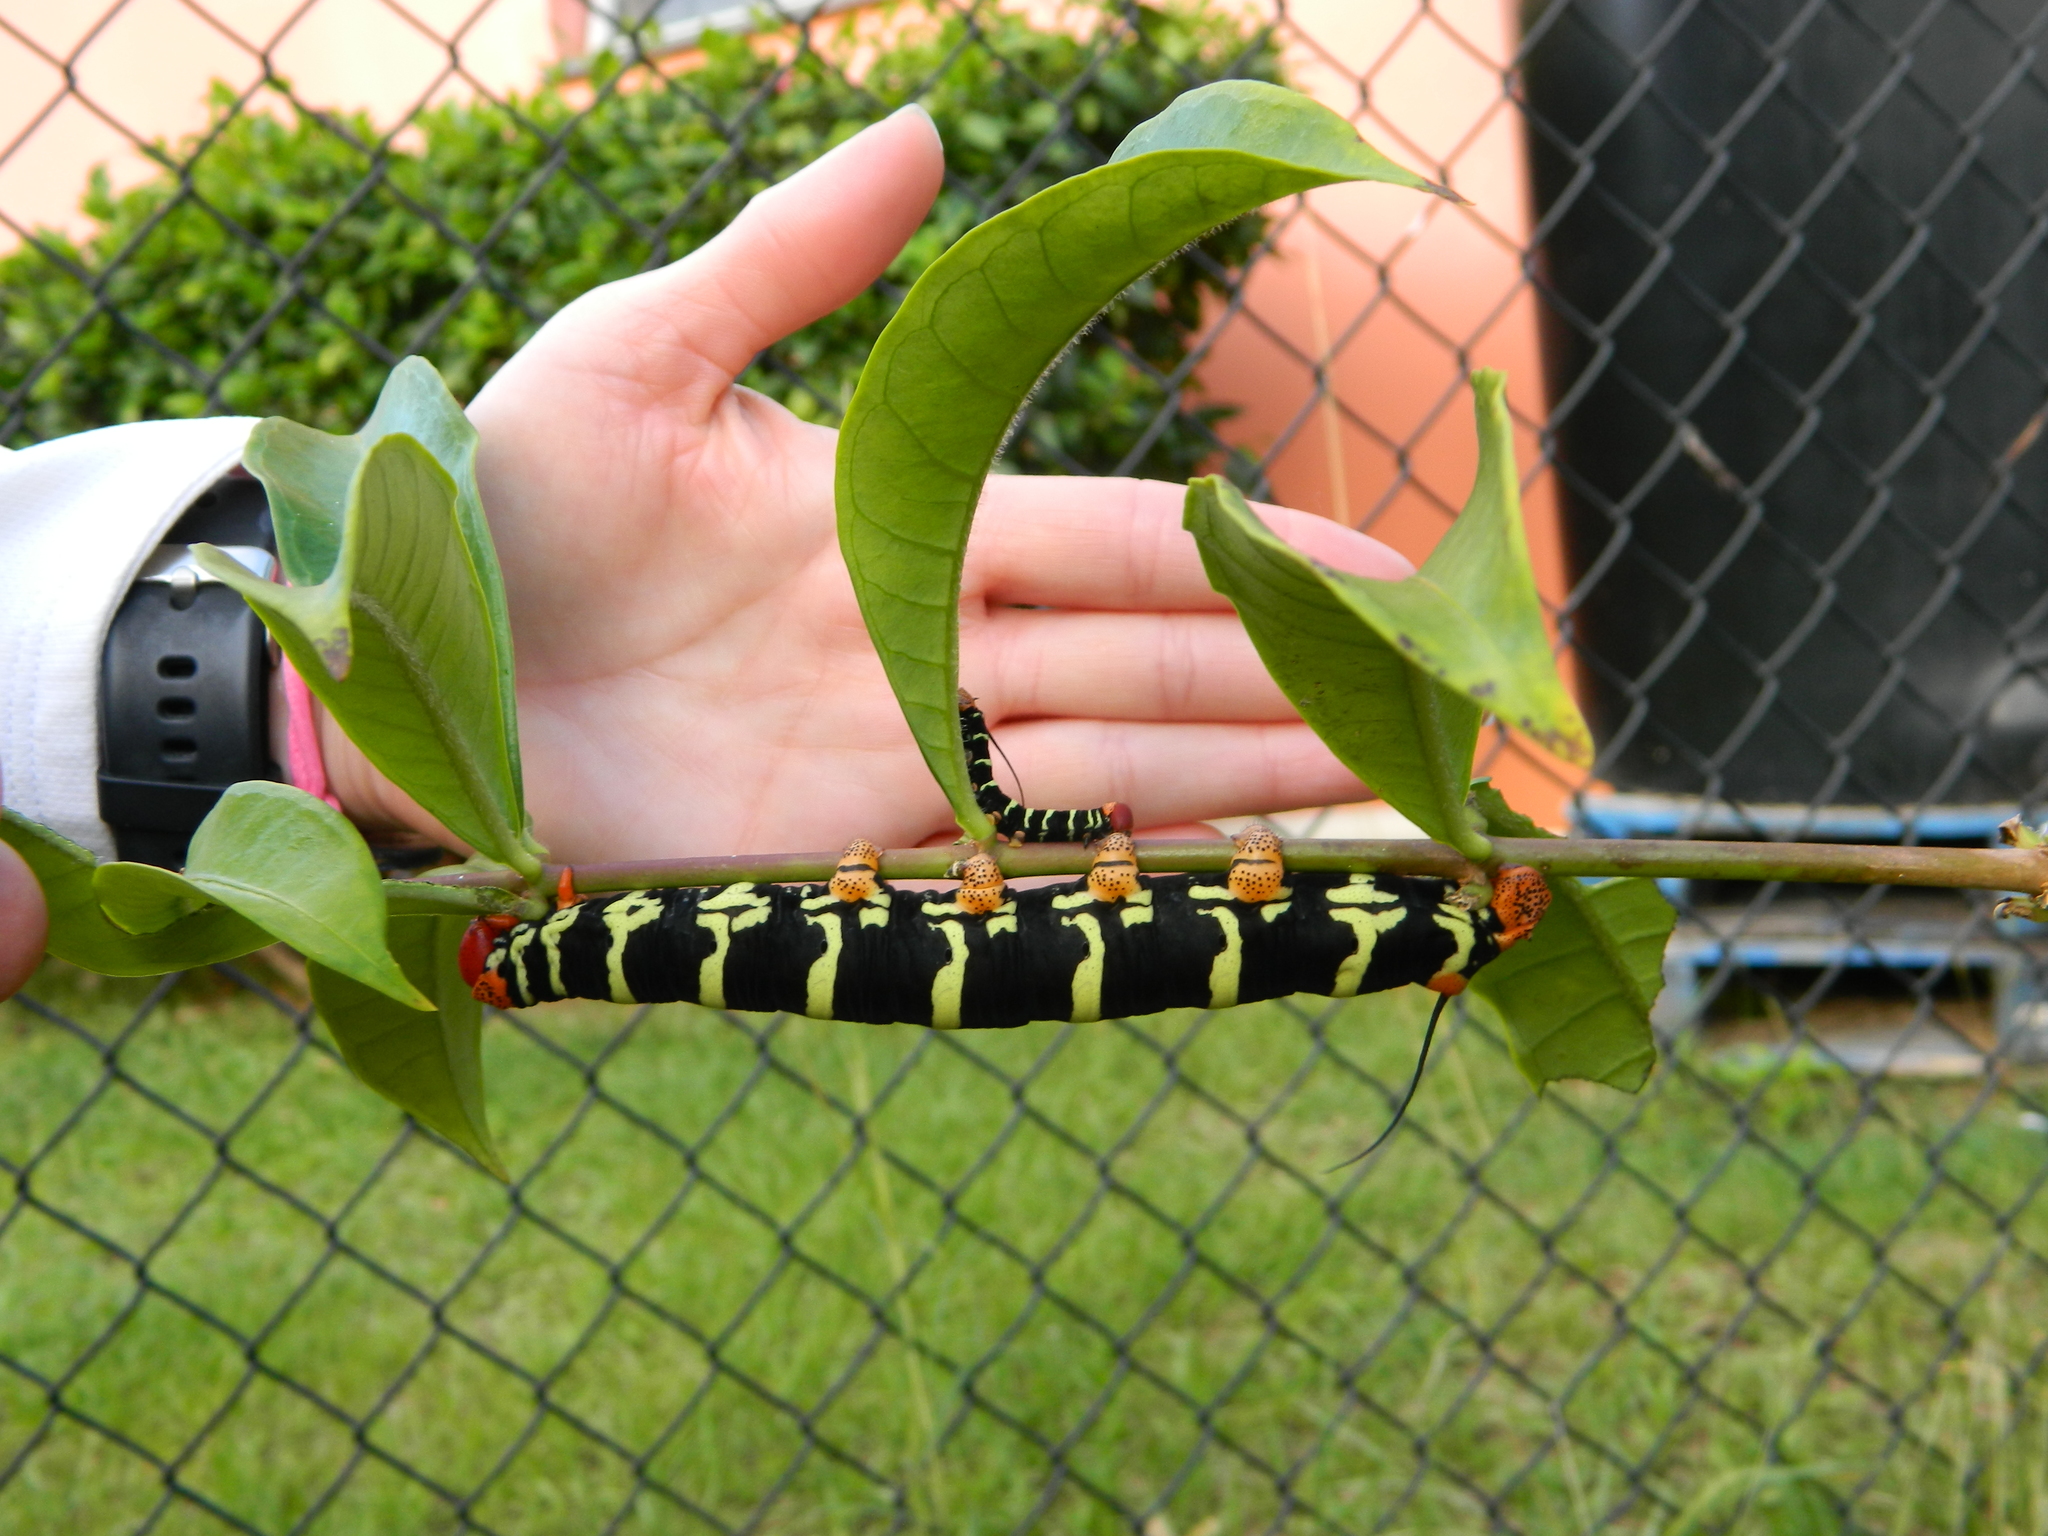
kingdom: Animalia
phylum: Arthropoda
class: Insecta
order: Lepidoptera
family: Sphingidae
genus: Pseudosphinx
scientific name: Pseudosphinx tetrio
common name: Tetrio sphinx
